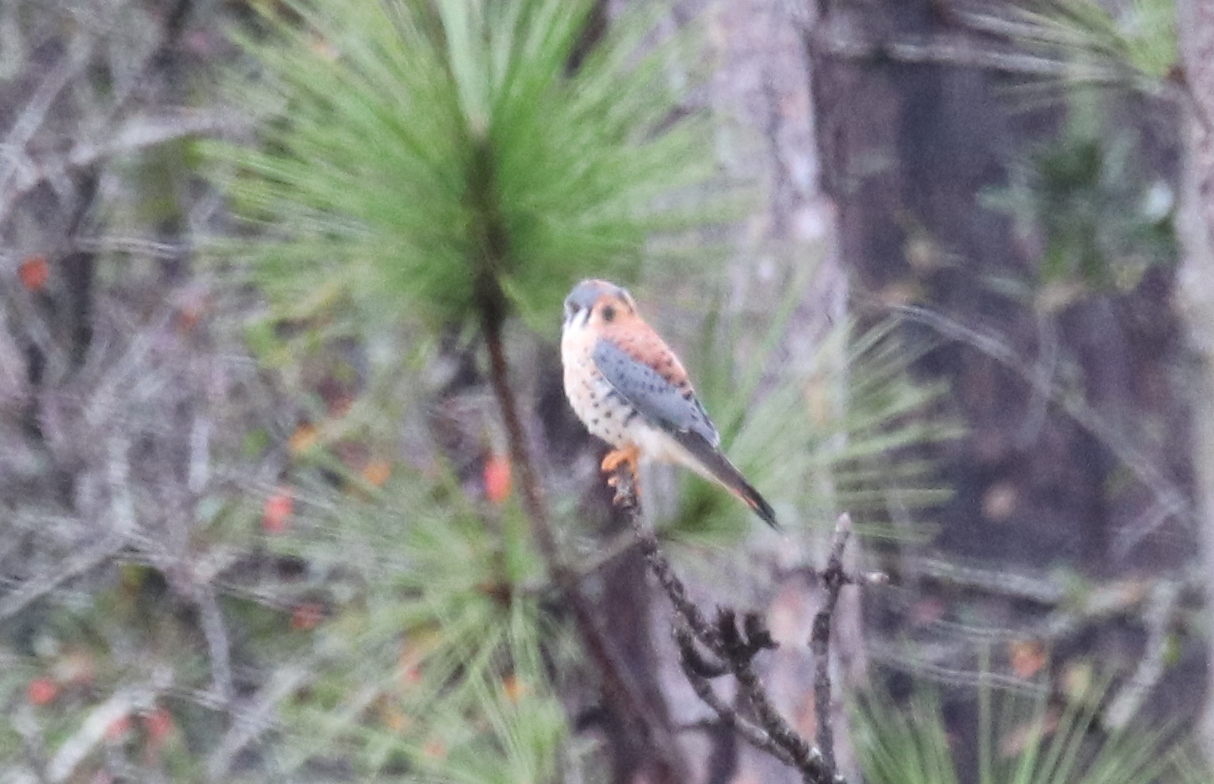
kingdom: Animalia
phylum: Chordata
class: Aves
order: Falconiformes
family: Falconidae
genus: Falco
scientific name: Falco sparverius
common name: American kestrel
